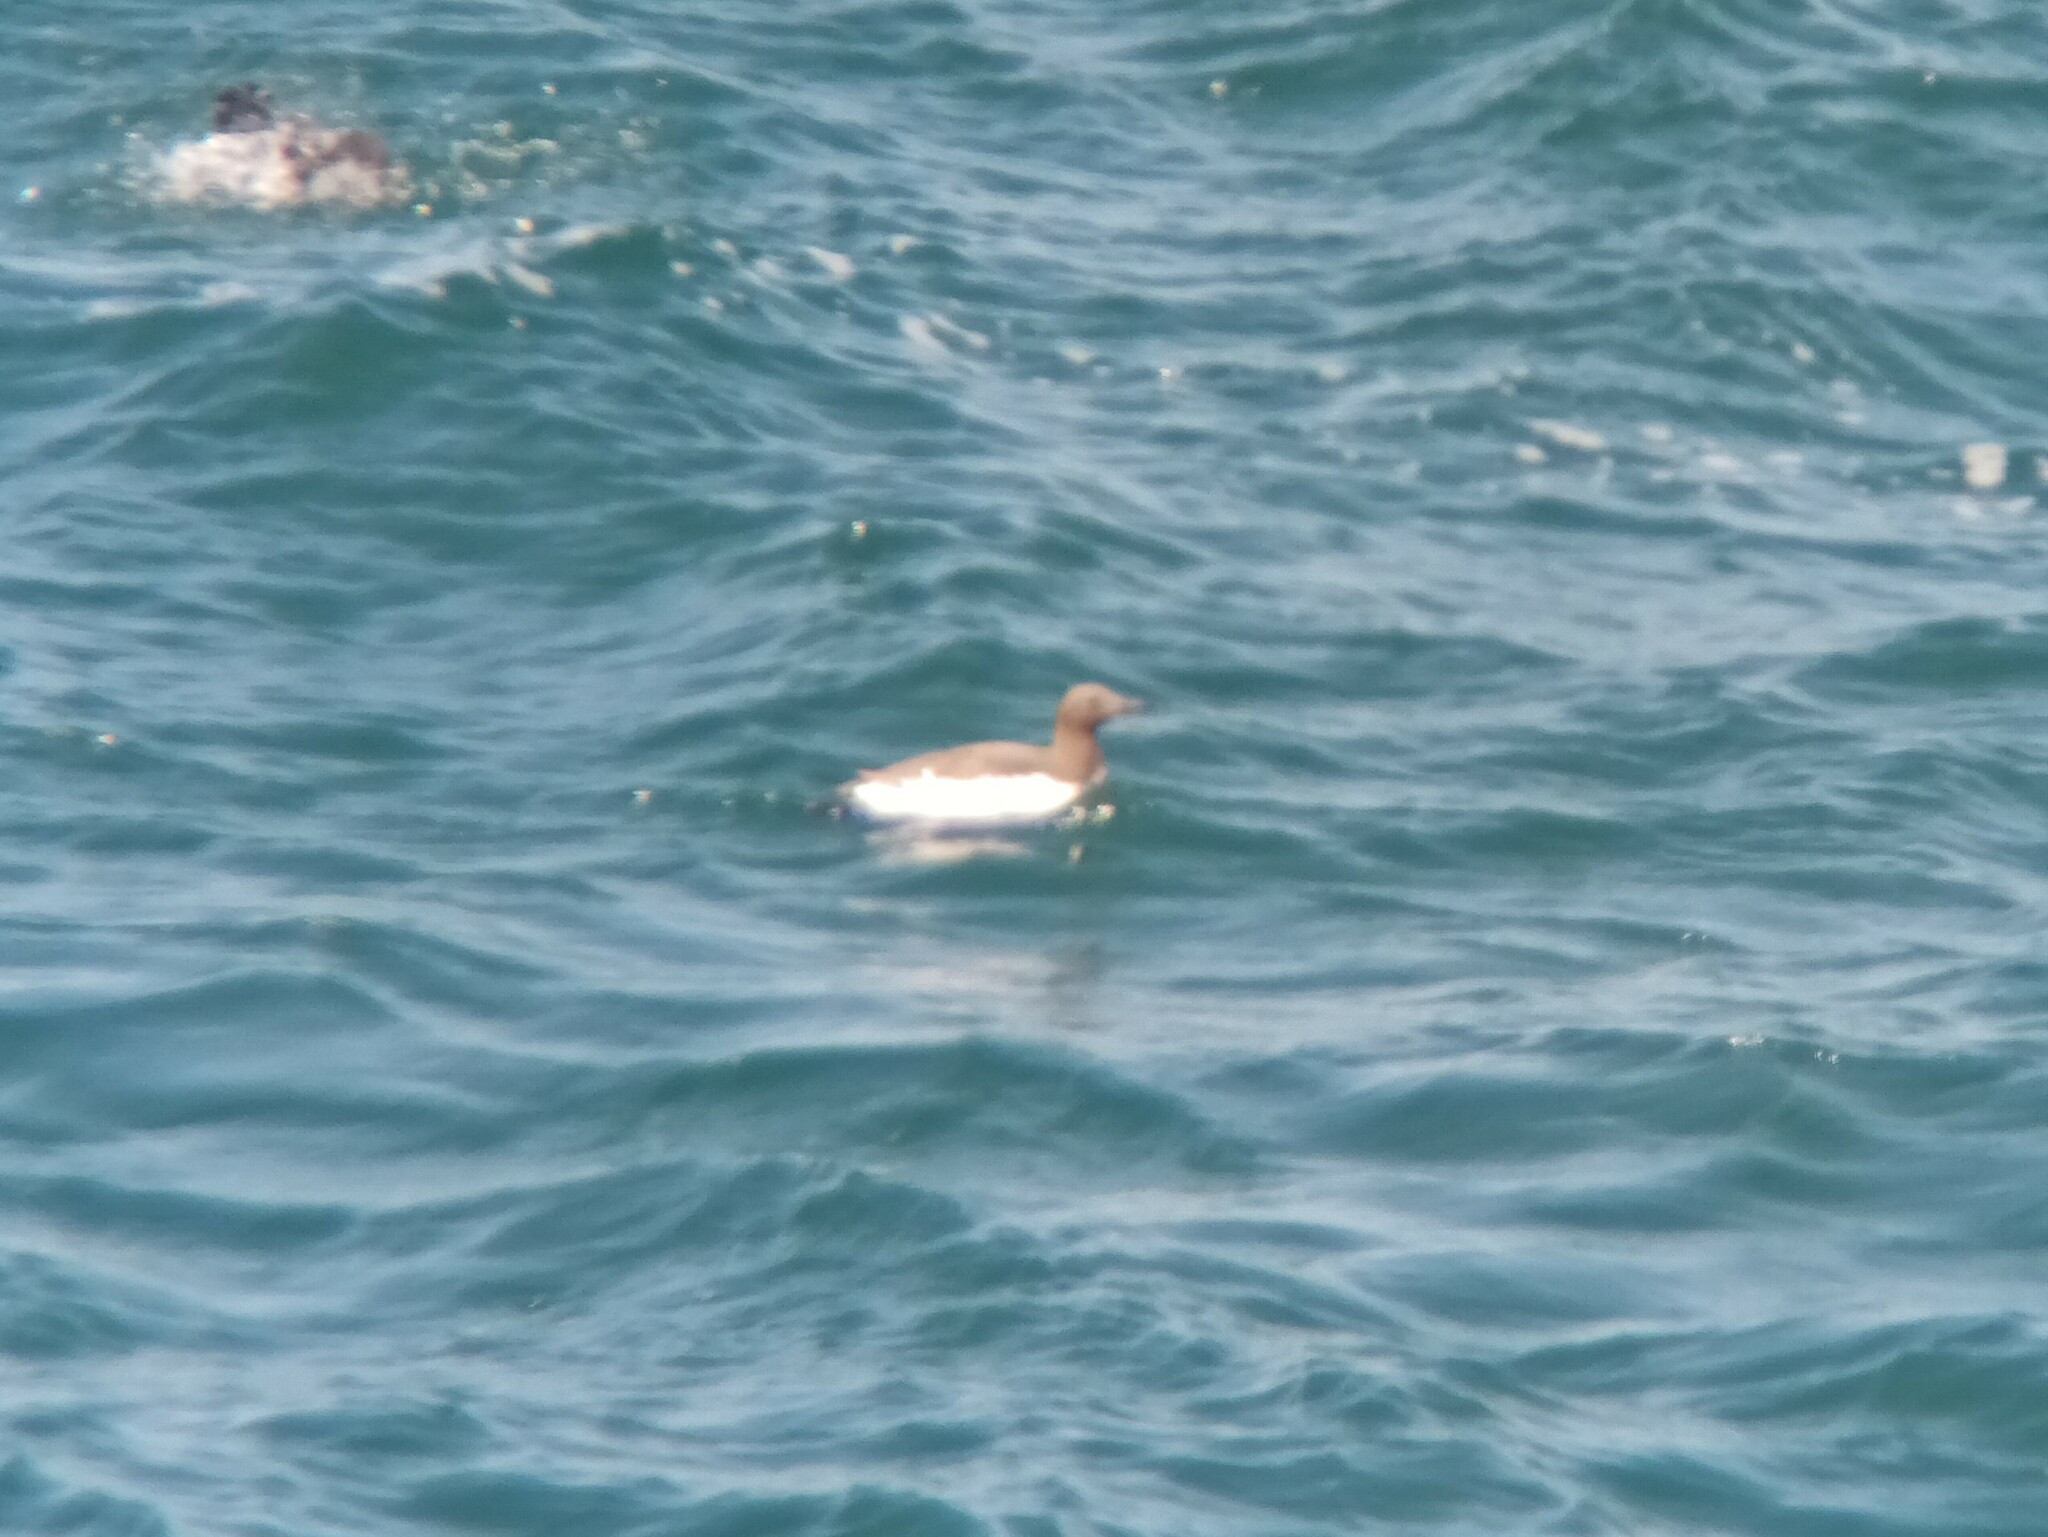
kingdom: Animalia
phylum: Chordata
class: Aves
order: Charadriiformes
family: Alcidae
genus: Uria
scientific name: Uria aalge
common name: Common murre
